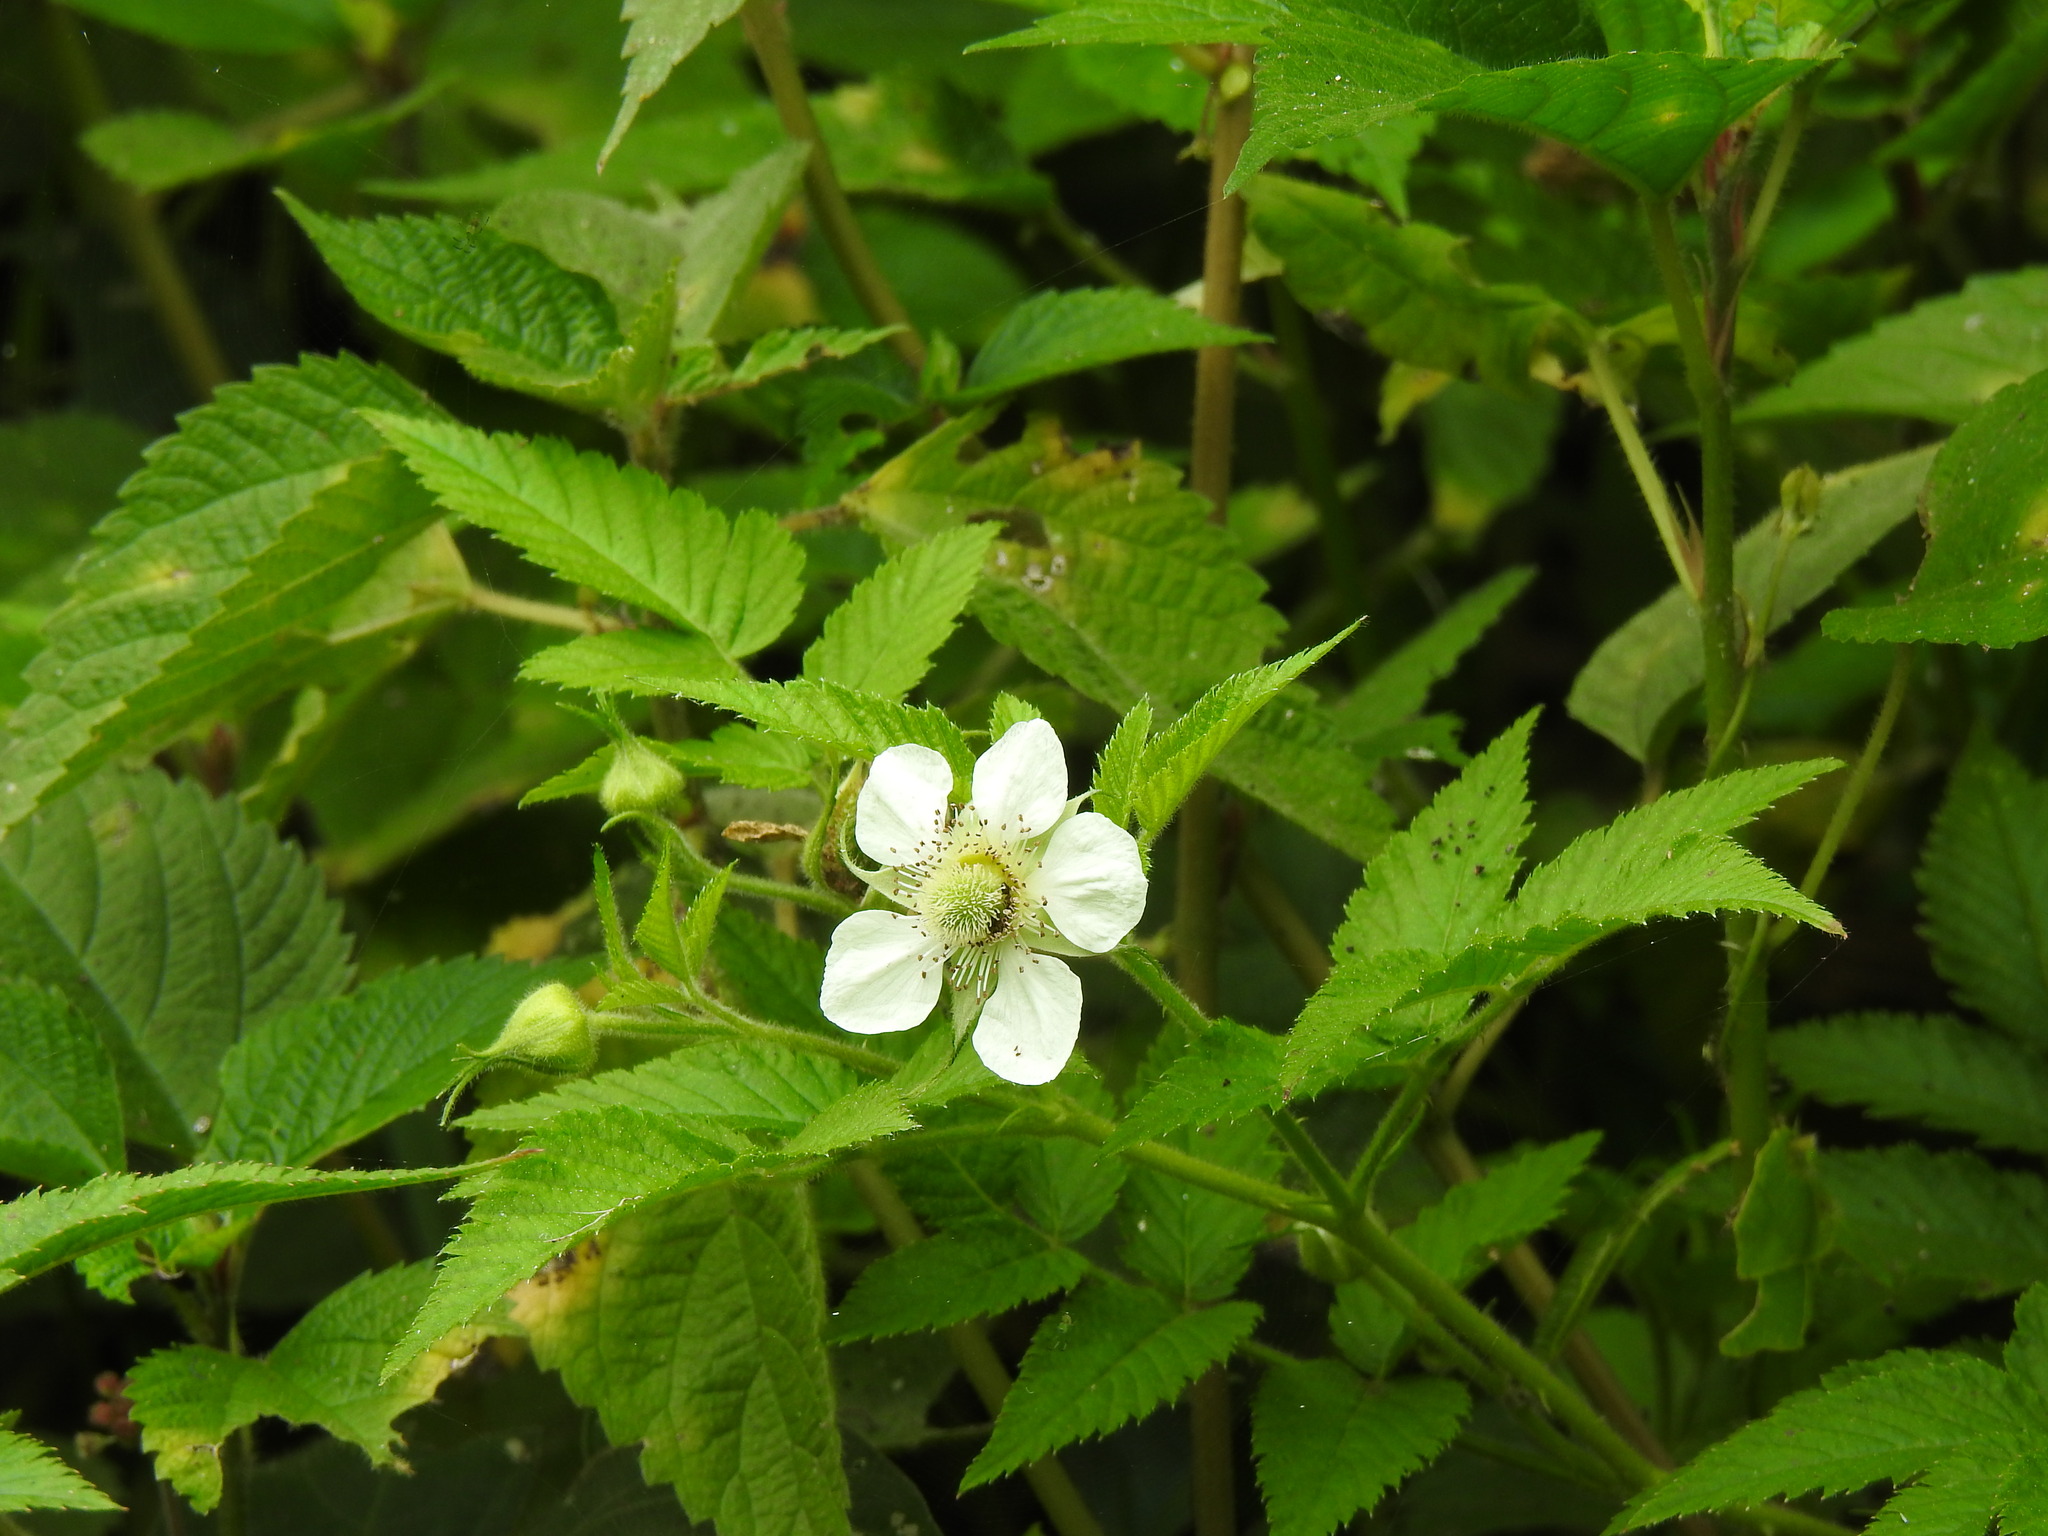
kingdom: Plantae
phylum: Tracheophyta
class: Magnoliopsida
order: Rosales
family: Rosaceae
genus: Rubus
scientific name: Rubus rosifolius
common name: Roseleaf raspberry
